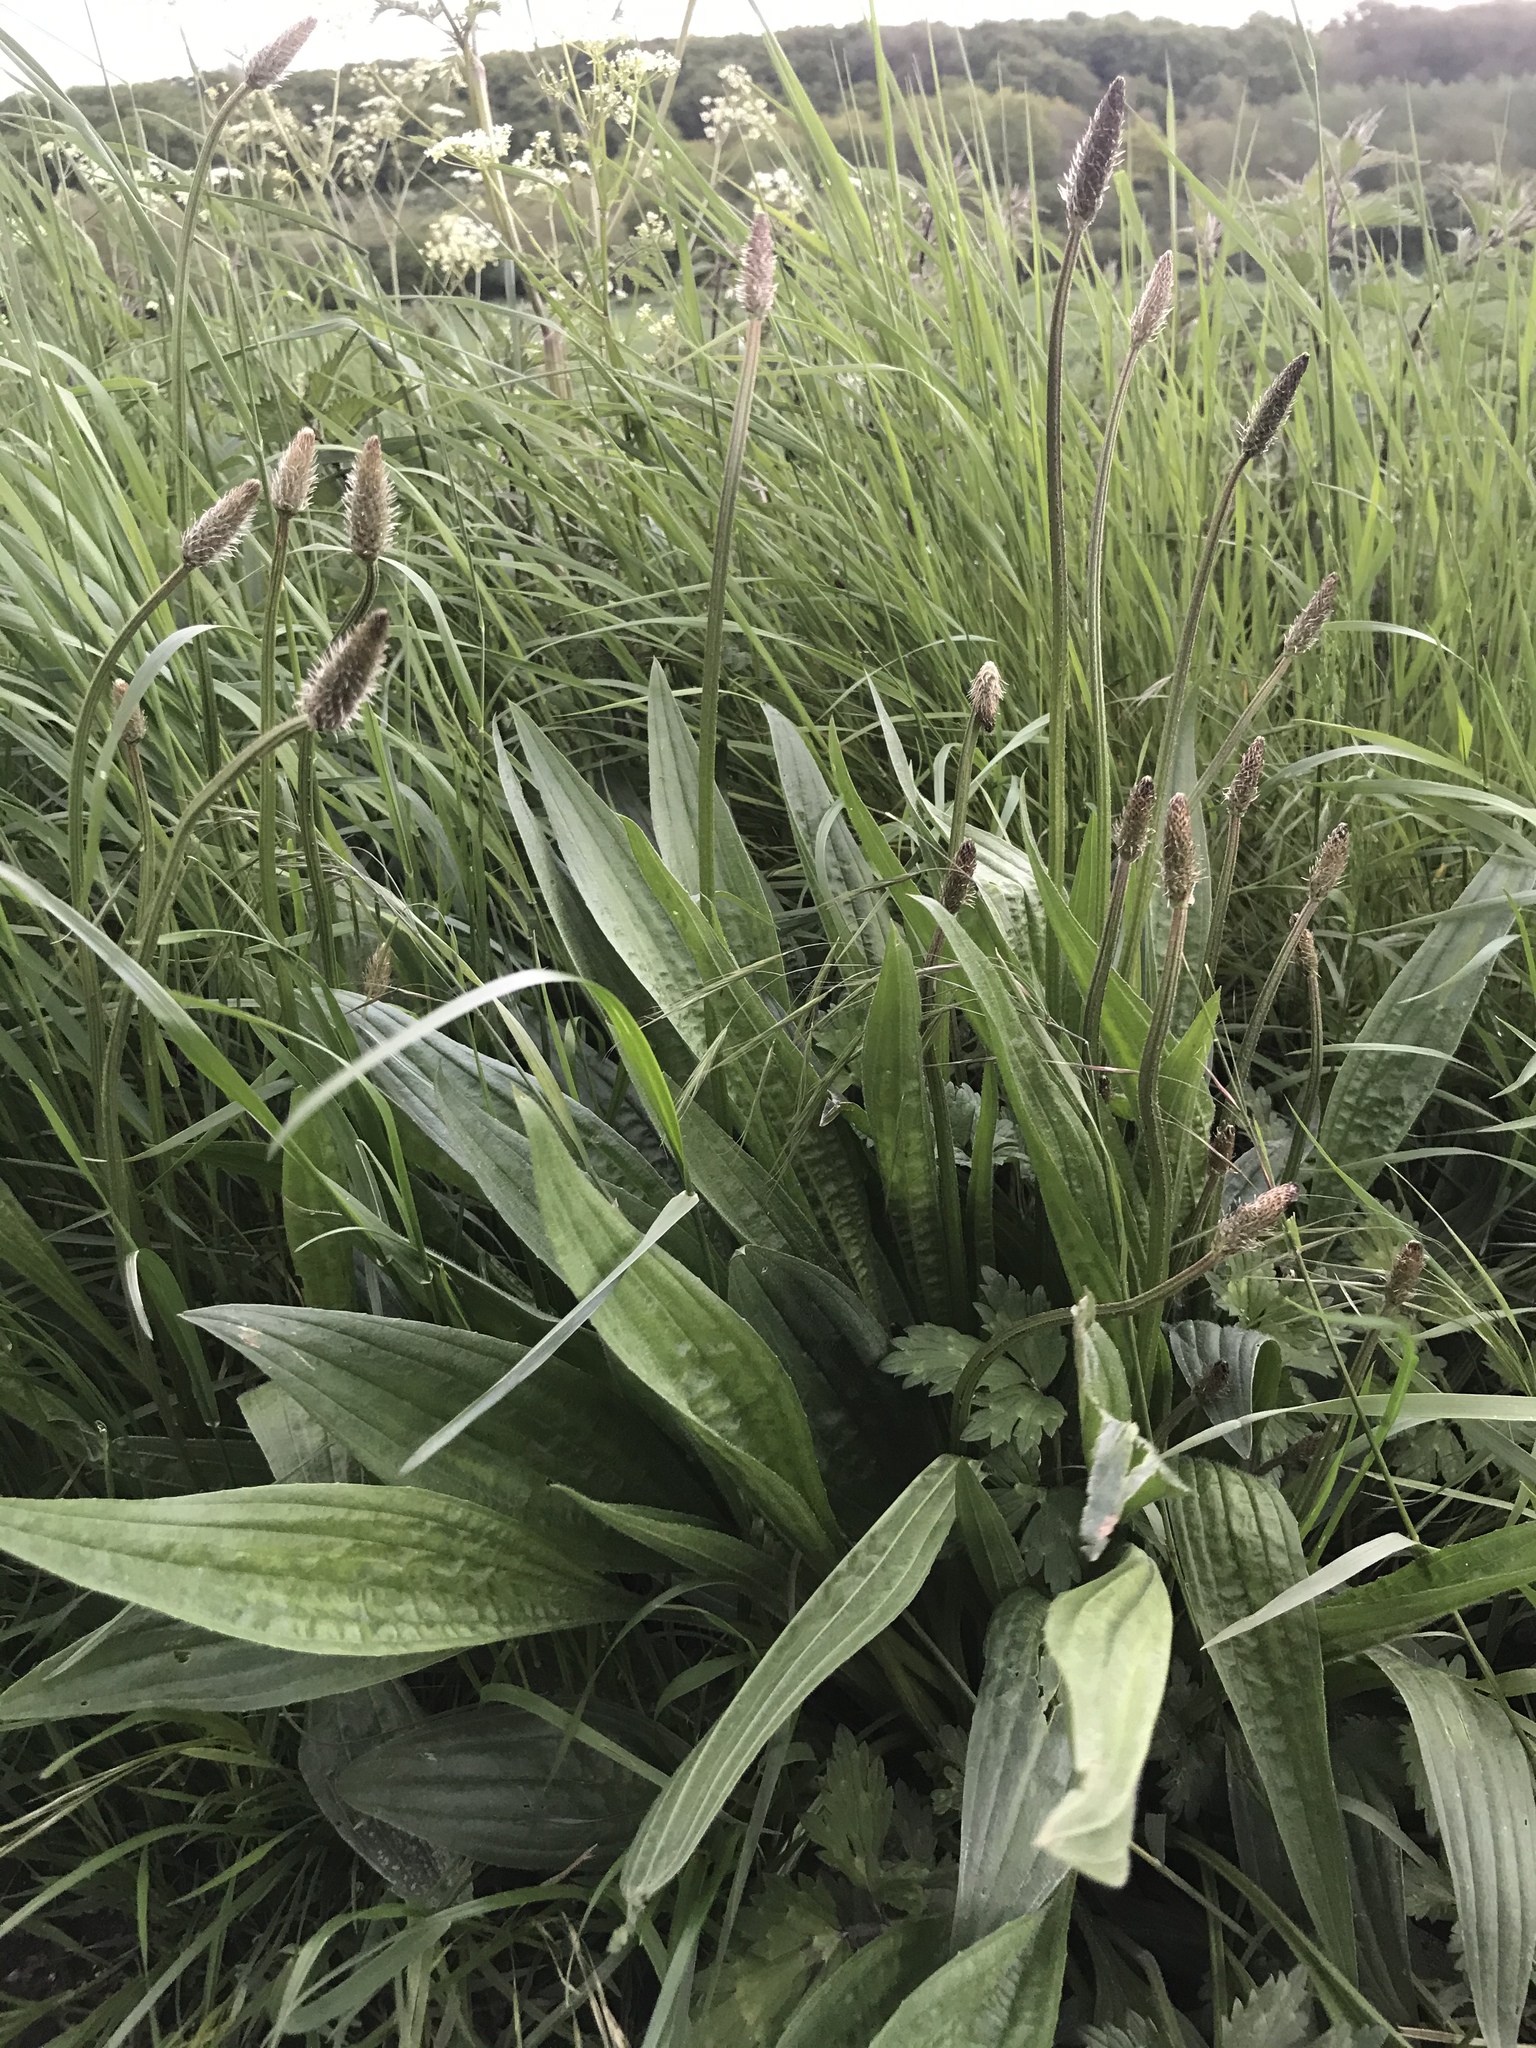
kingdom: Plantae
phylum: Tracheophyta
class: Magnoliopsida
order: Lamiales
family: Plantaginaceae
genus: Plantago
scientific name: Plantago lanceolata
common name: Ribwort plantain
